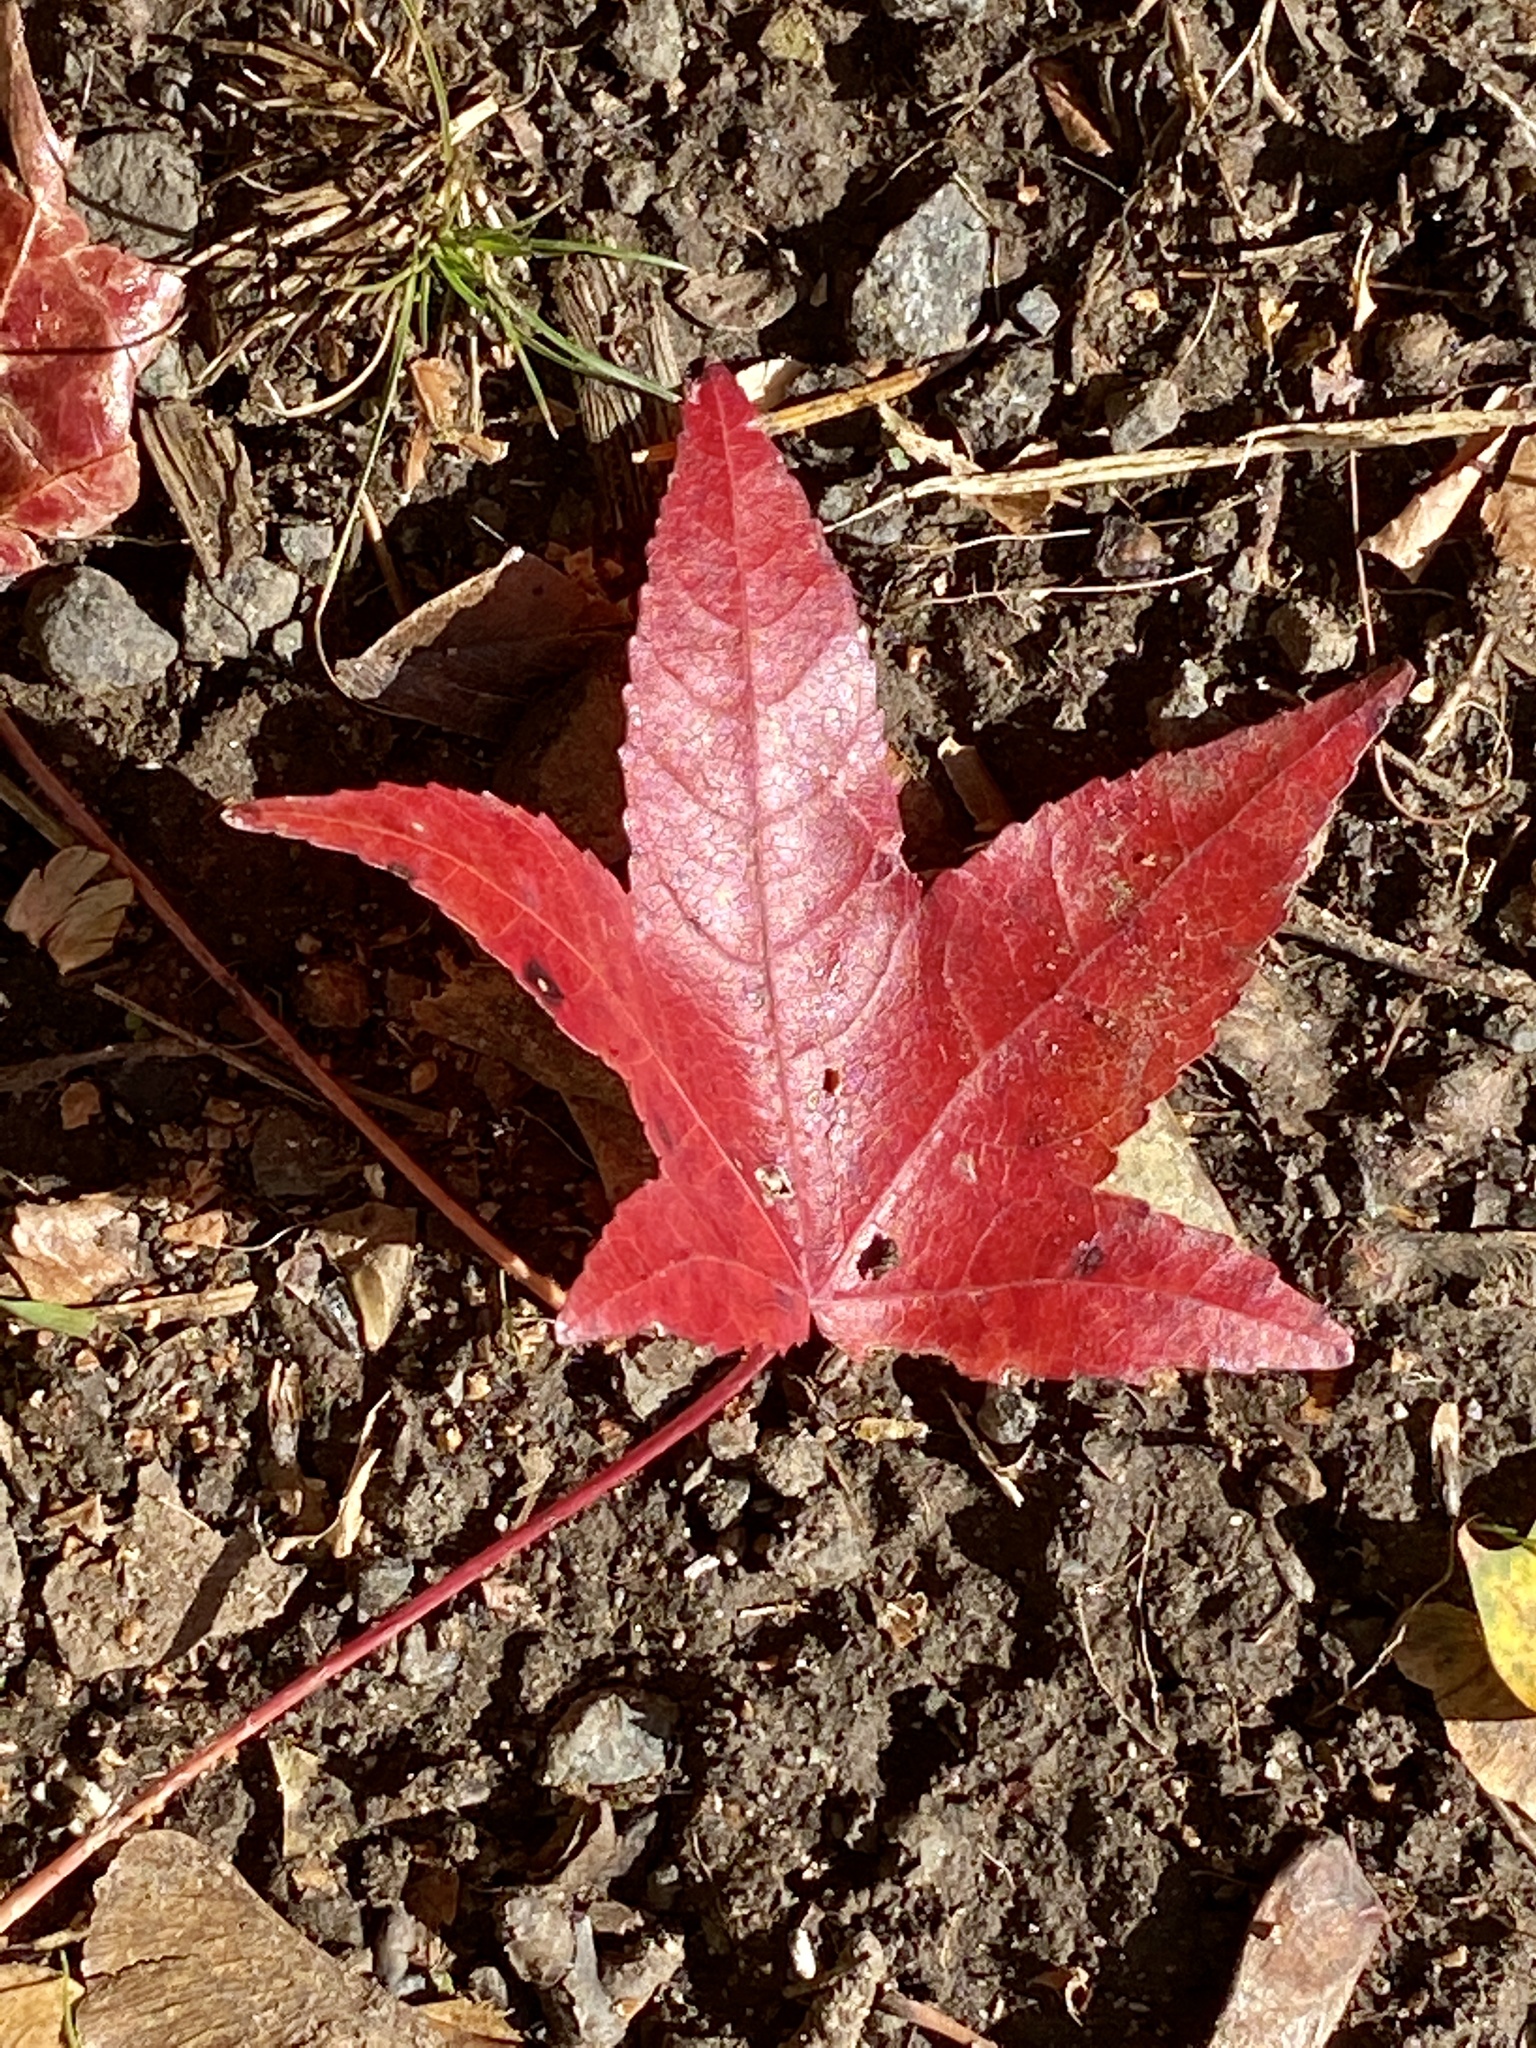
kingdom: Plantae
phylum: Tracheophyta
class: Magnoliopsida
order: Saxifragales
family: Altingiaceae
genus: Liquidambar
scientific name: Liquidambar styraciflua
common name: Sweet gum
